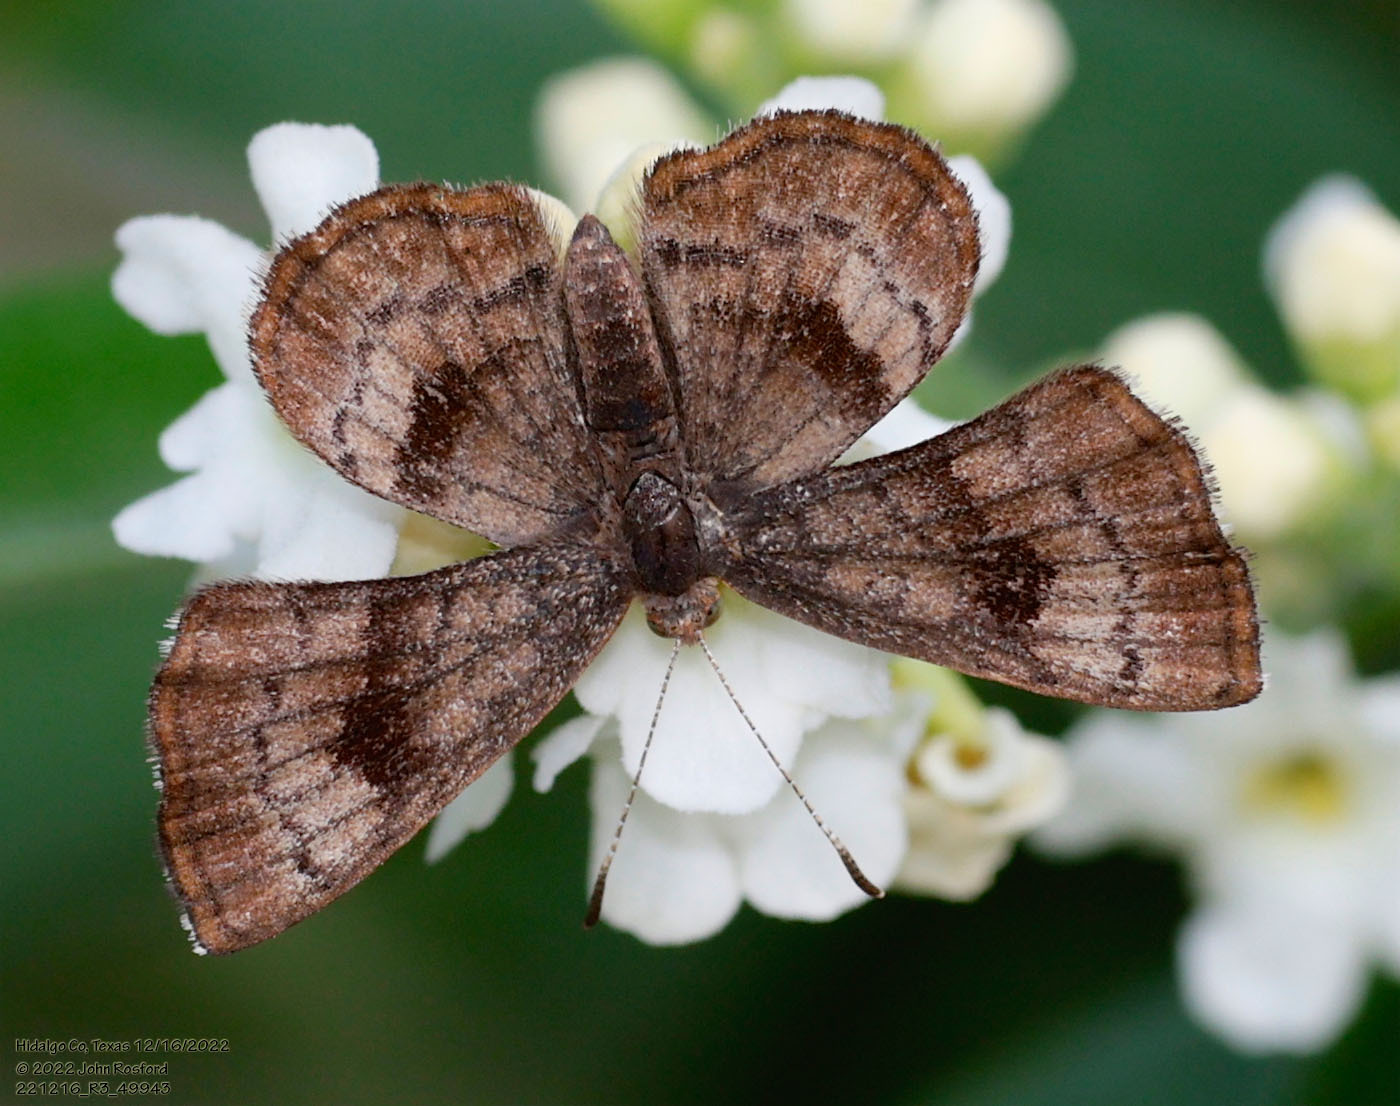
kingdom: Animalia
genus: Calephelis
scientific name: Calephelis nemesis
